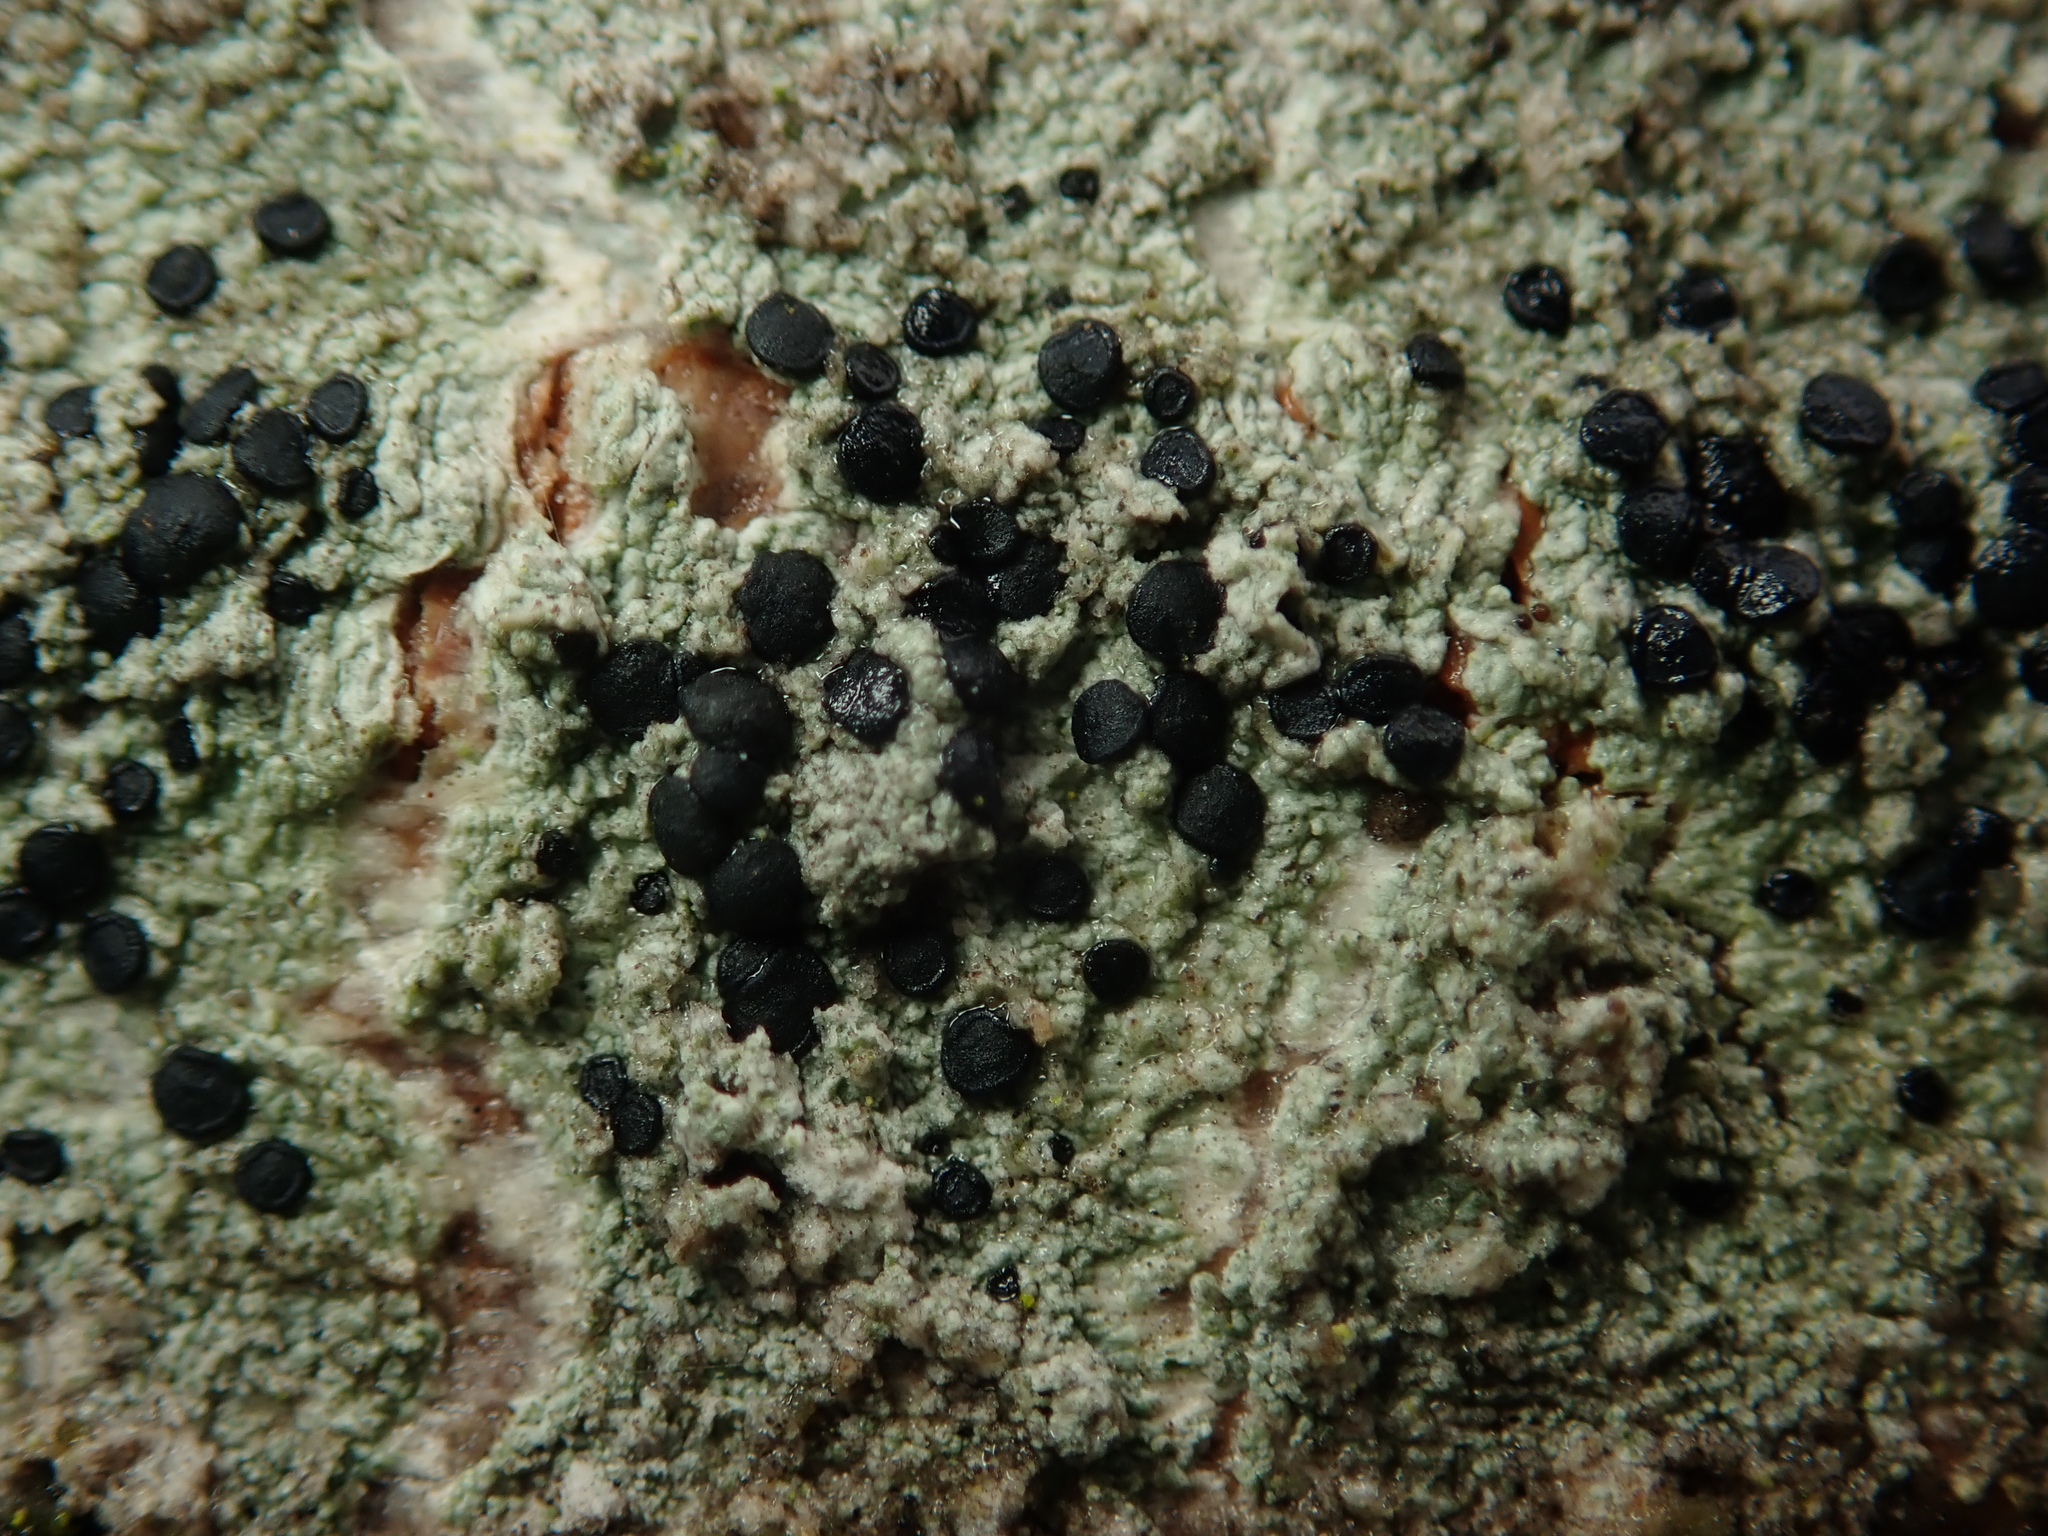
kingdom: Fungi
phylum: Ascomycota
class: Lecanoromycetes
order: Lecanorales
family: Lecanoraceae
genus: Lecidella
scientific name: Lecidella elaeochroma
